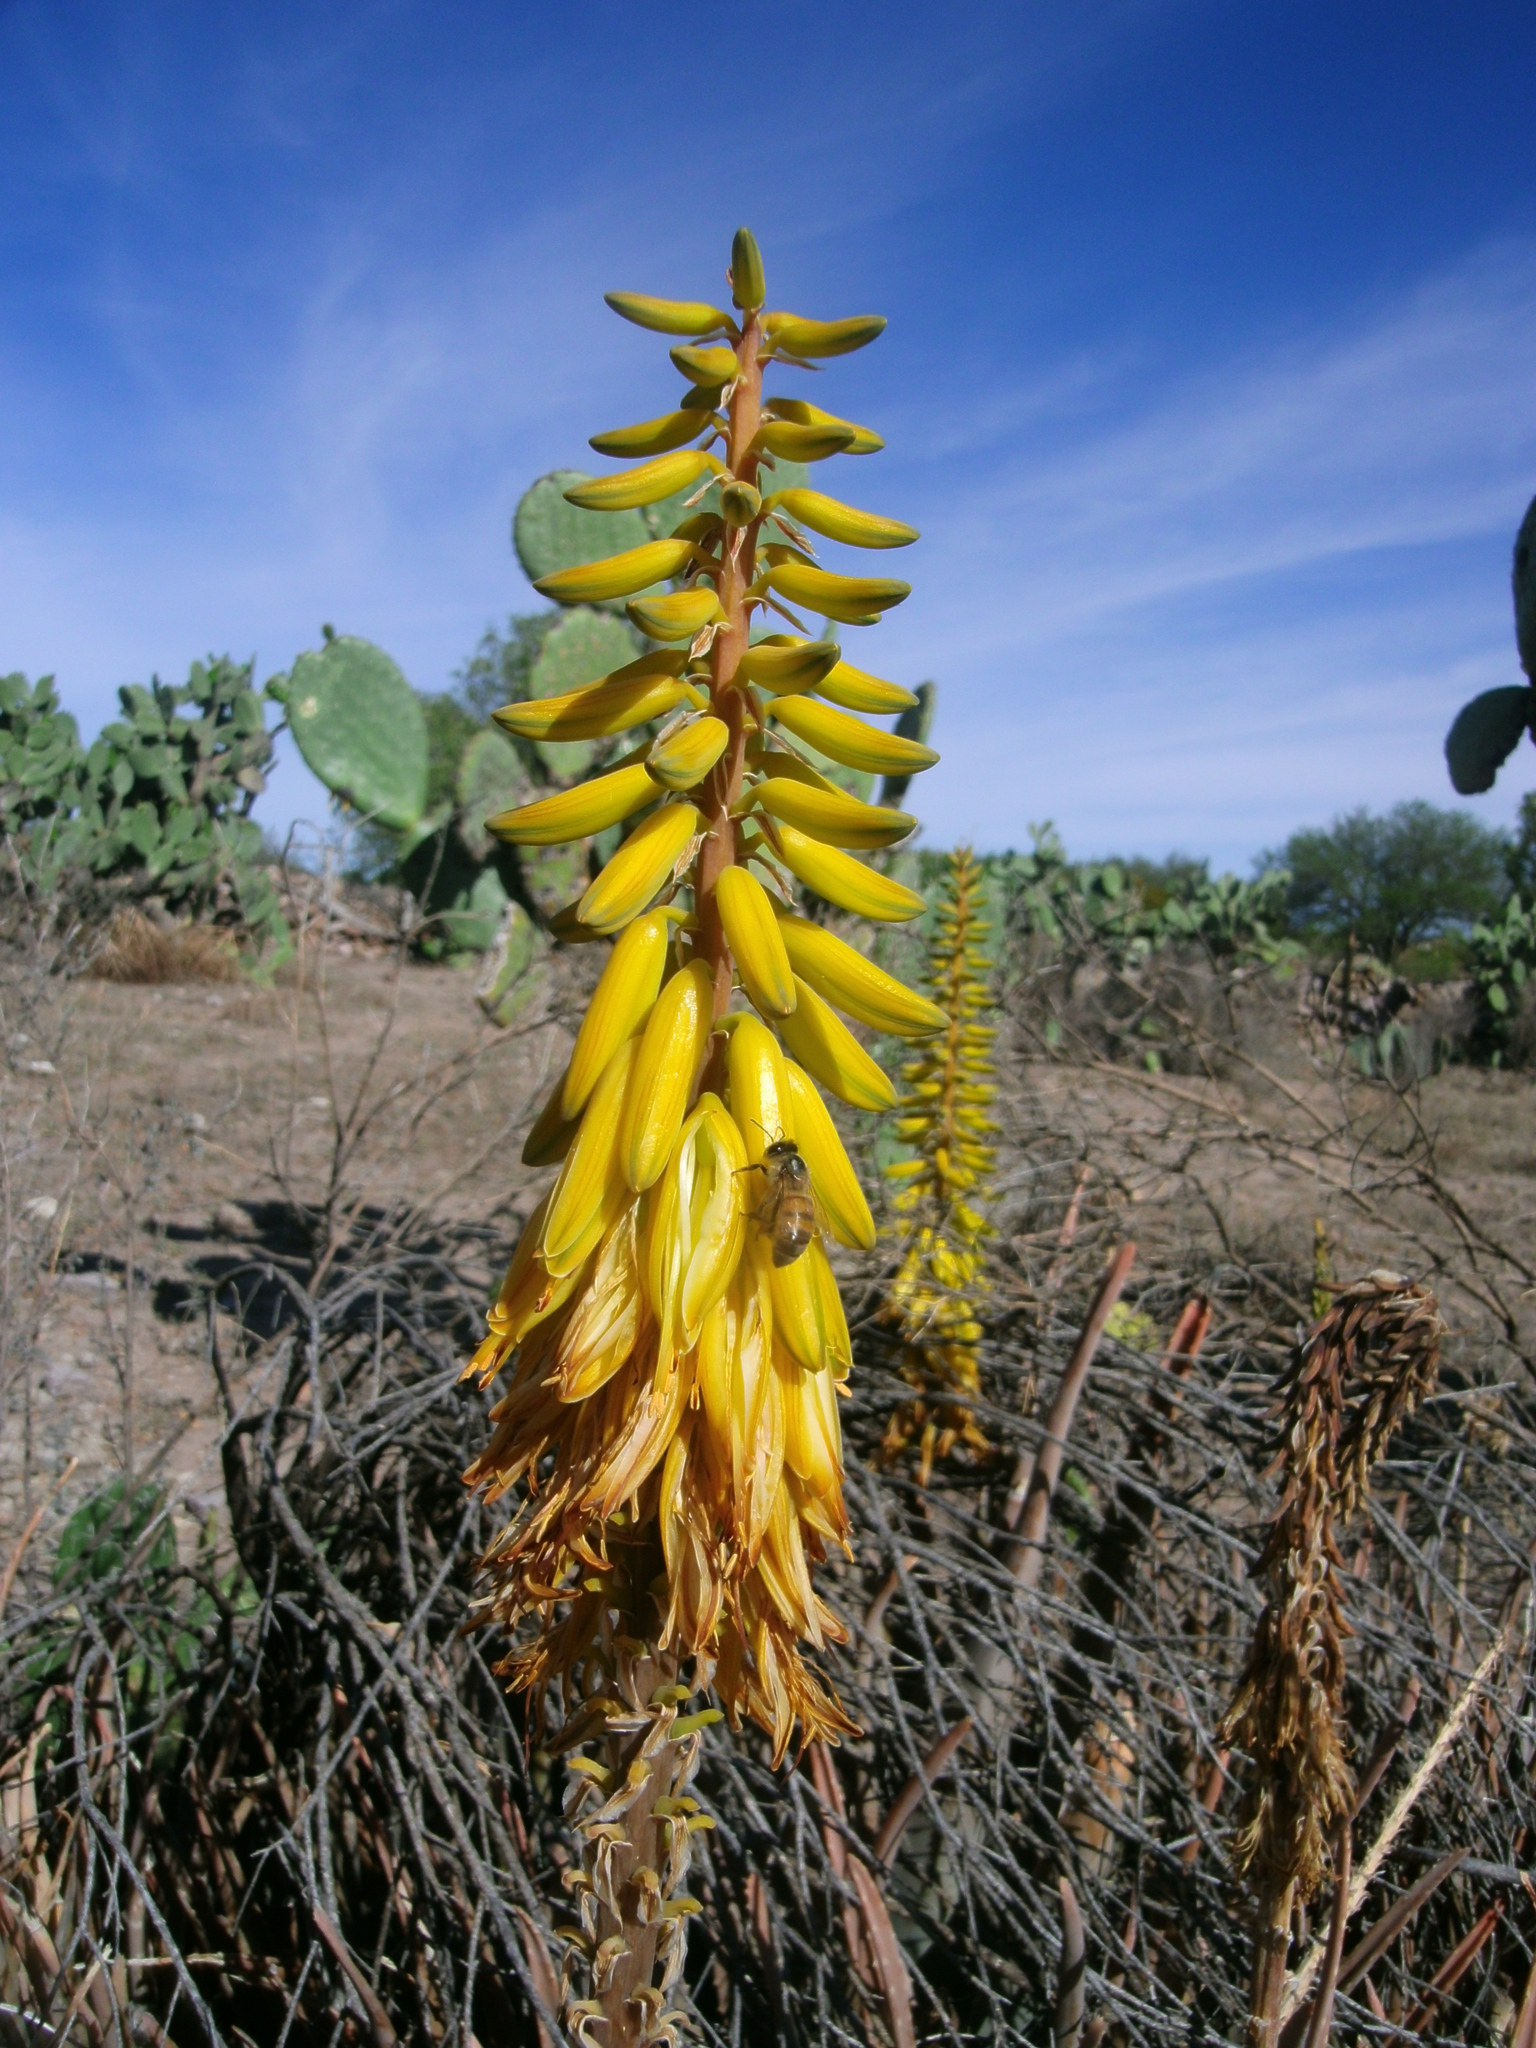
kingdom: Plantae
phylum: Tracheophyta
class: Liliopsida
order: Asparagales
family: Asphodelaceae
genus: Aloe
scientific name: Aloe vera
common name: Barbados aloe
